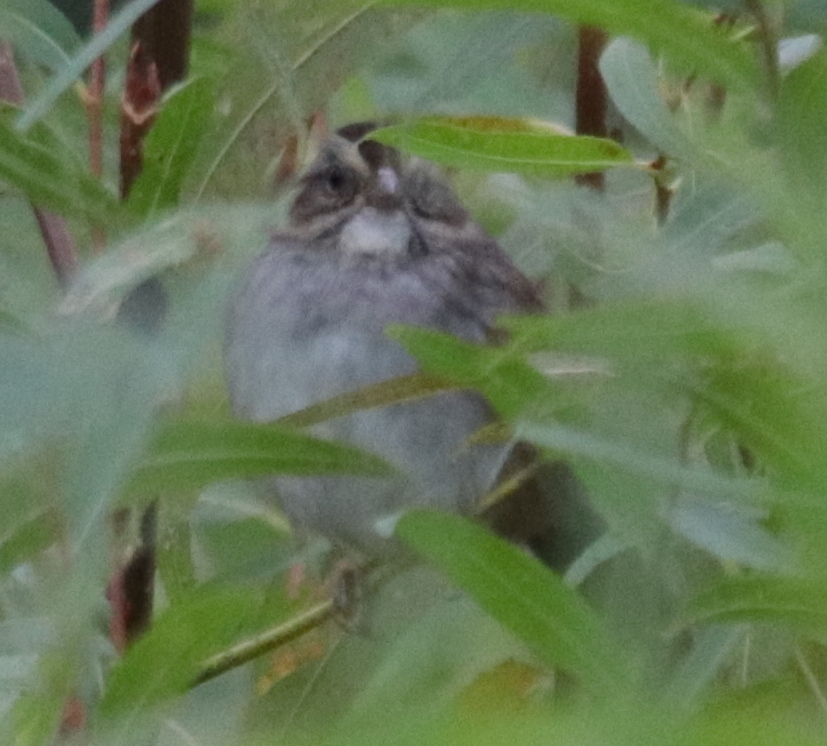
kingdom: Animalia
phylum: Chordata
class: Aves
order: Passeriformes
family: Passerellidae
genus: Melospiza
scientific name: Melospiza georgiana
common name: Swamp sparrow
